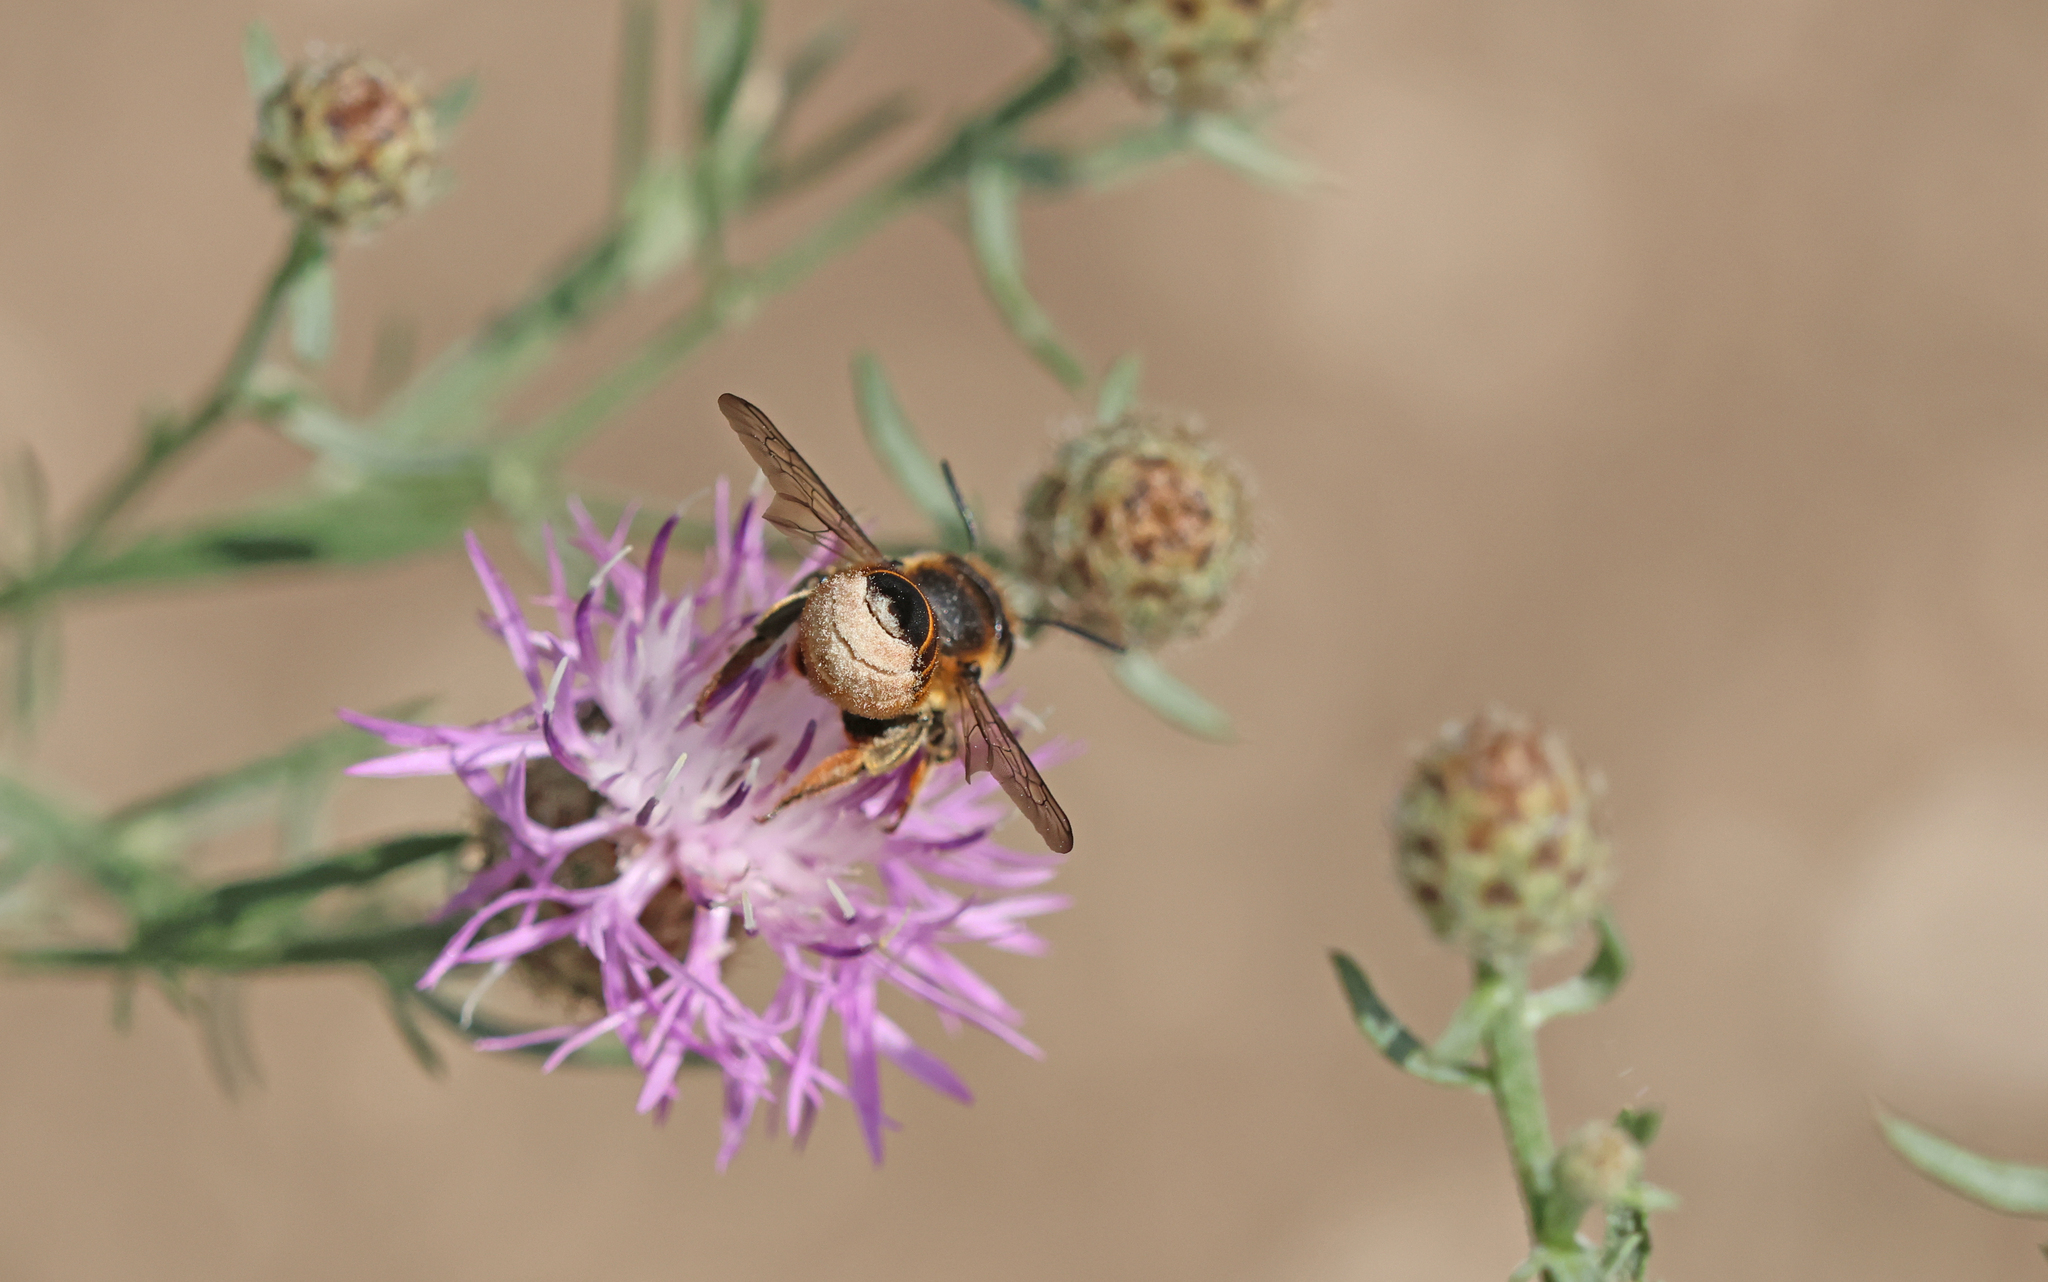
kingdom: Animalia
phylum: Arthropoda
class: Insecta
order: Hymenoptera
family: Megachilidae
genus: Megachile
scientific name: Megachile pilicrus
